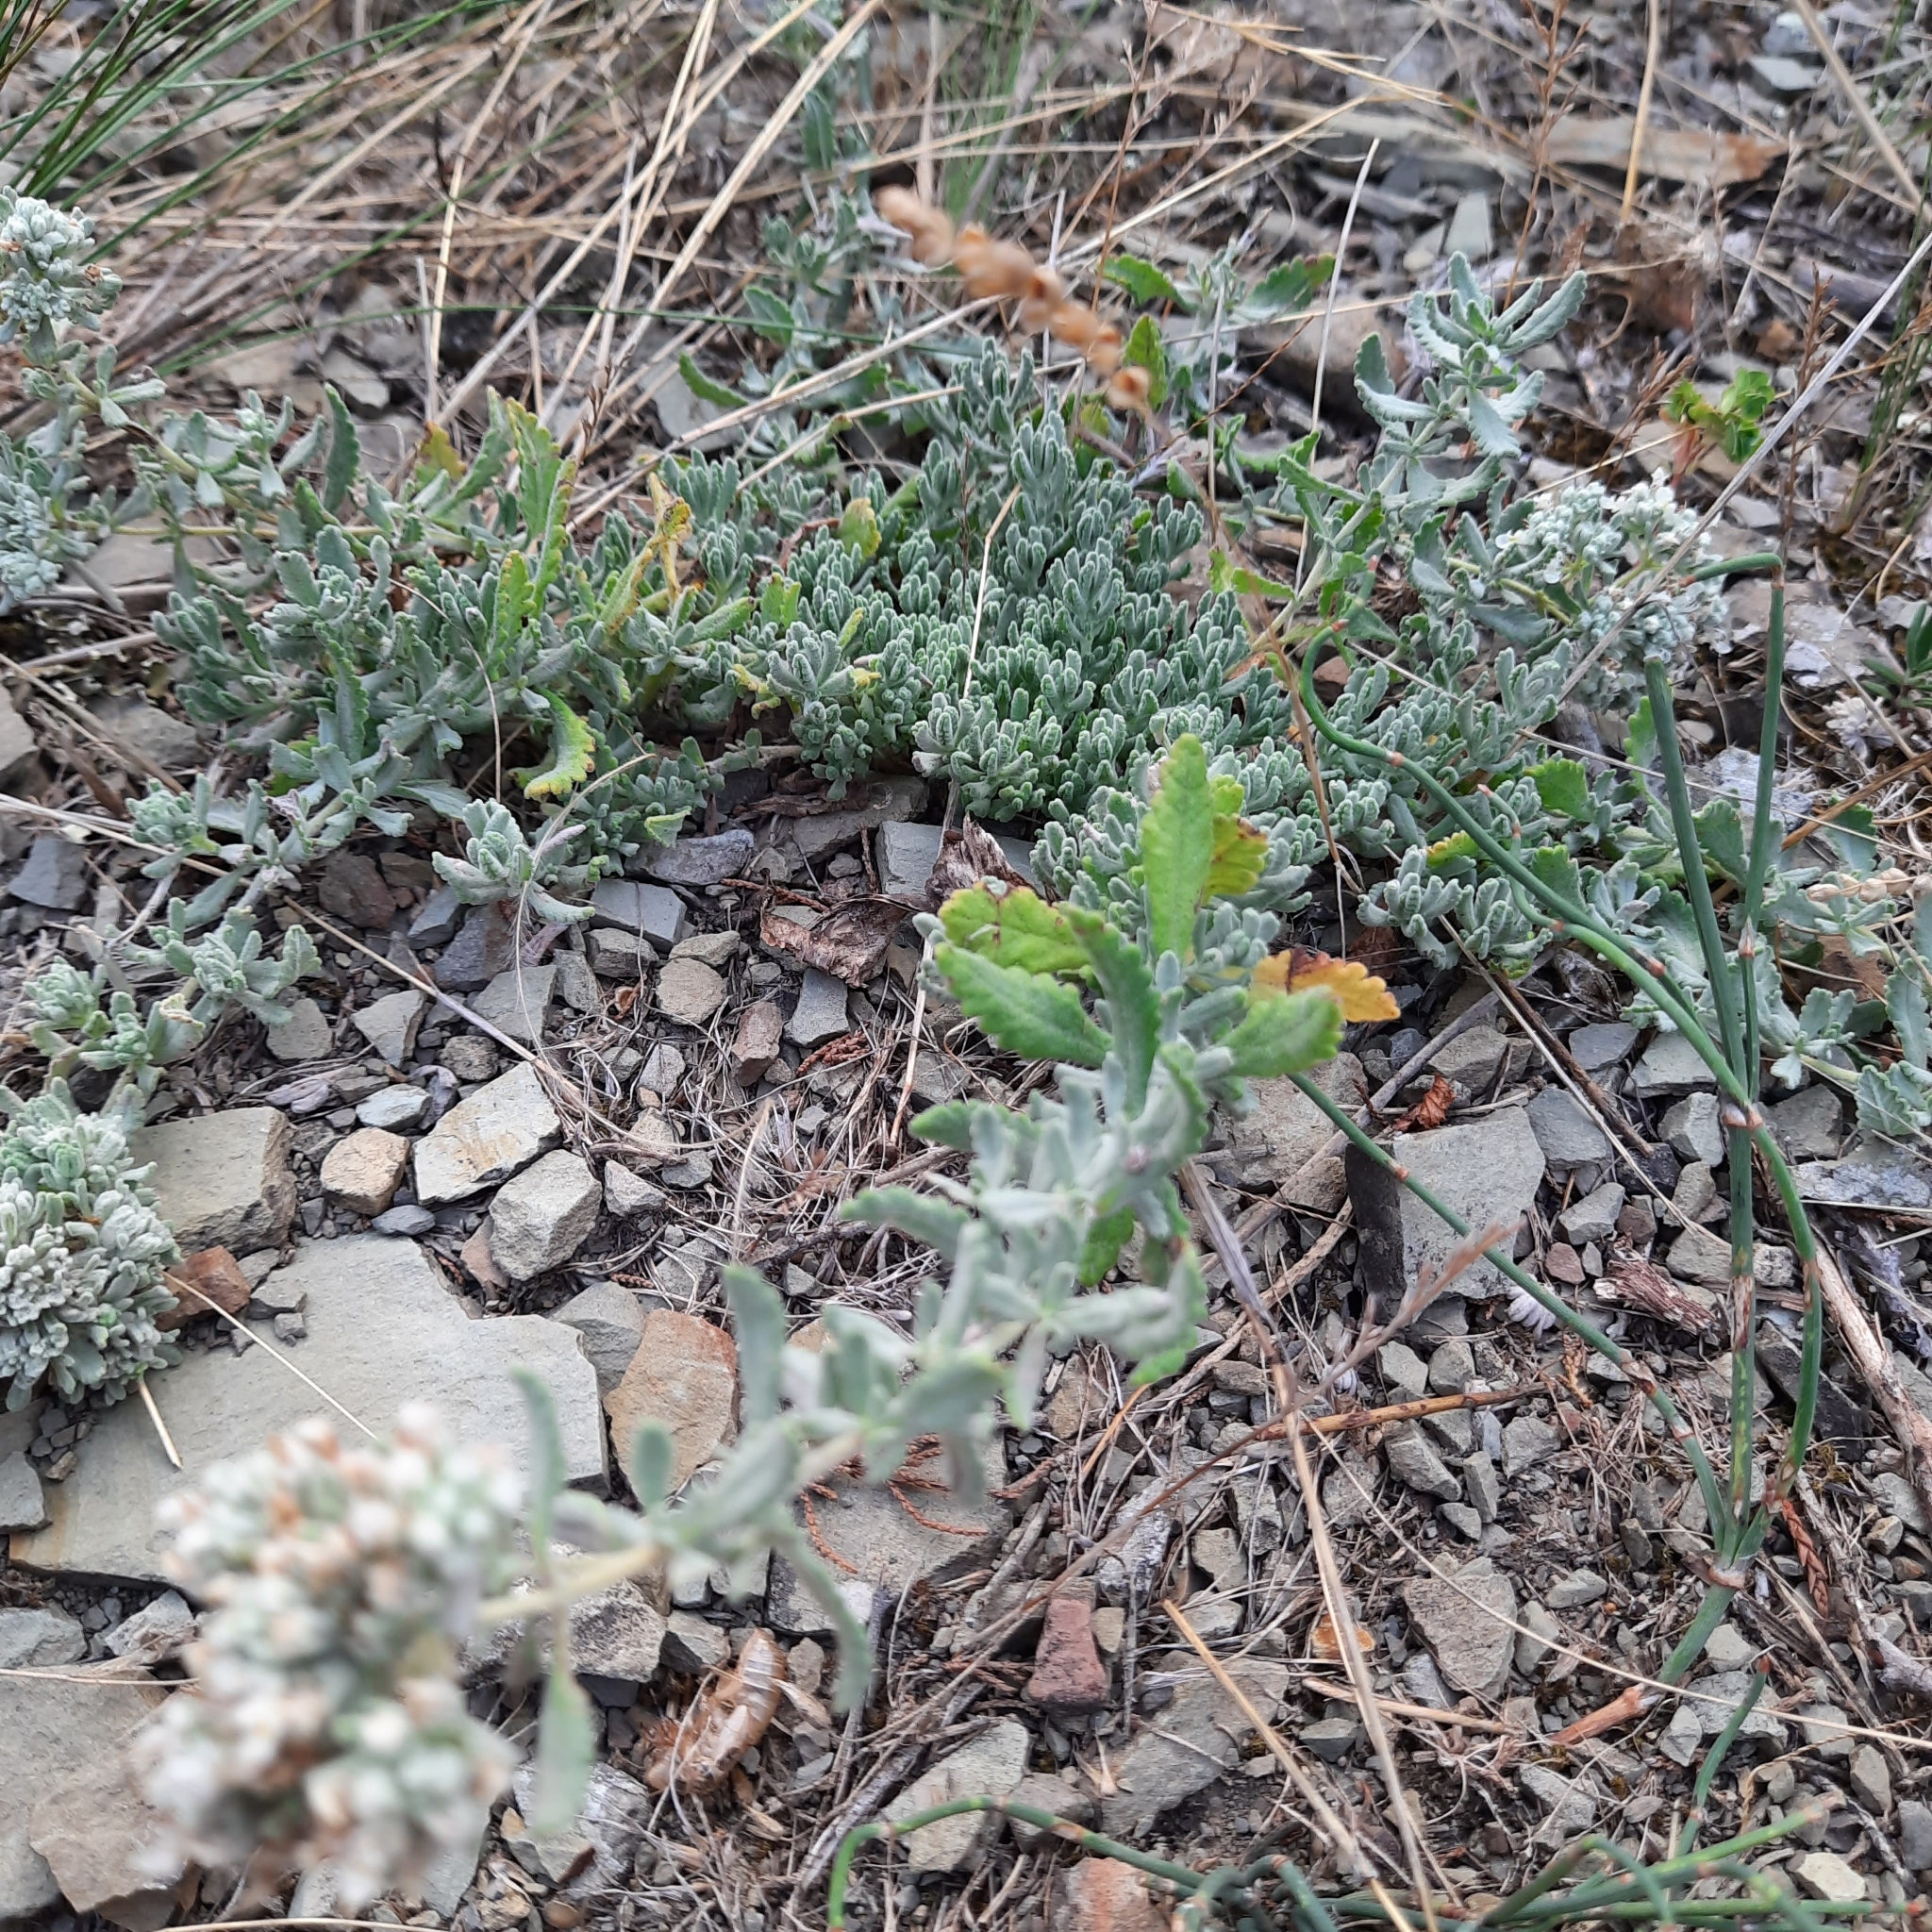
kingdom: Plantae
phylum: Tracheophyta
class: Magnoliopsida
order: Lamiales
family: Lamiaceae
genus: Teucrium
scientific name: Teucrium polium
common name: Poley
